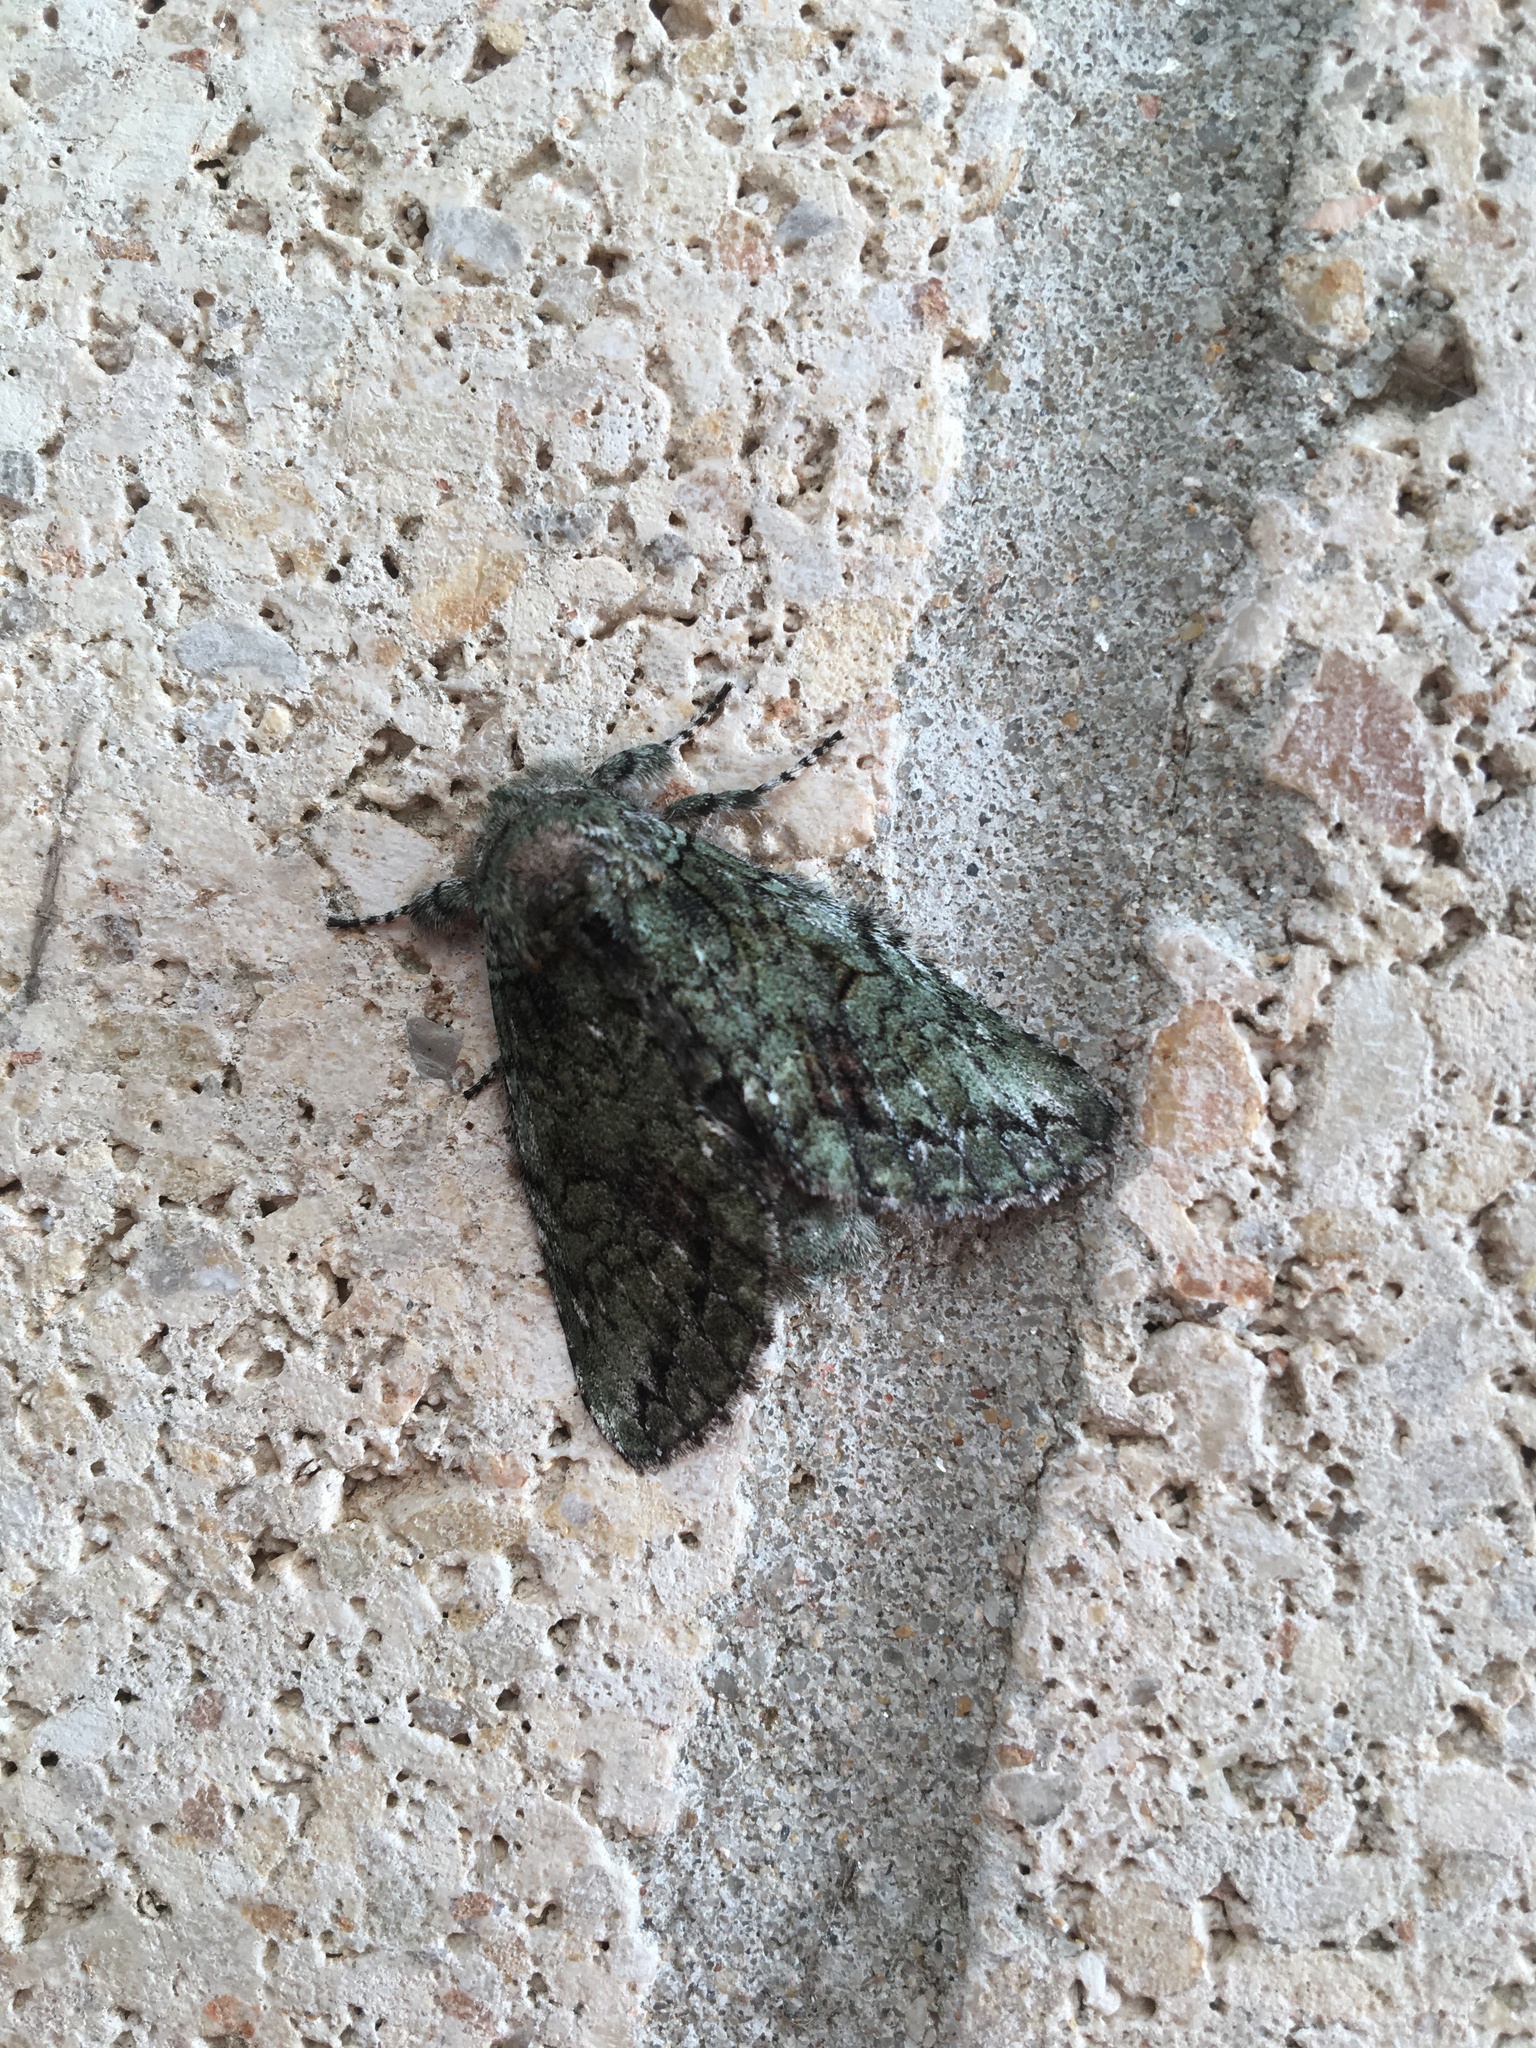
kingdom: Animalia
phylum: Arthropoda
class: Insecta
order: Lepidoptera
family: Notodontidae
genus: Heterocampa
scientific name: Heterocampa
